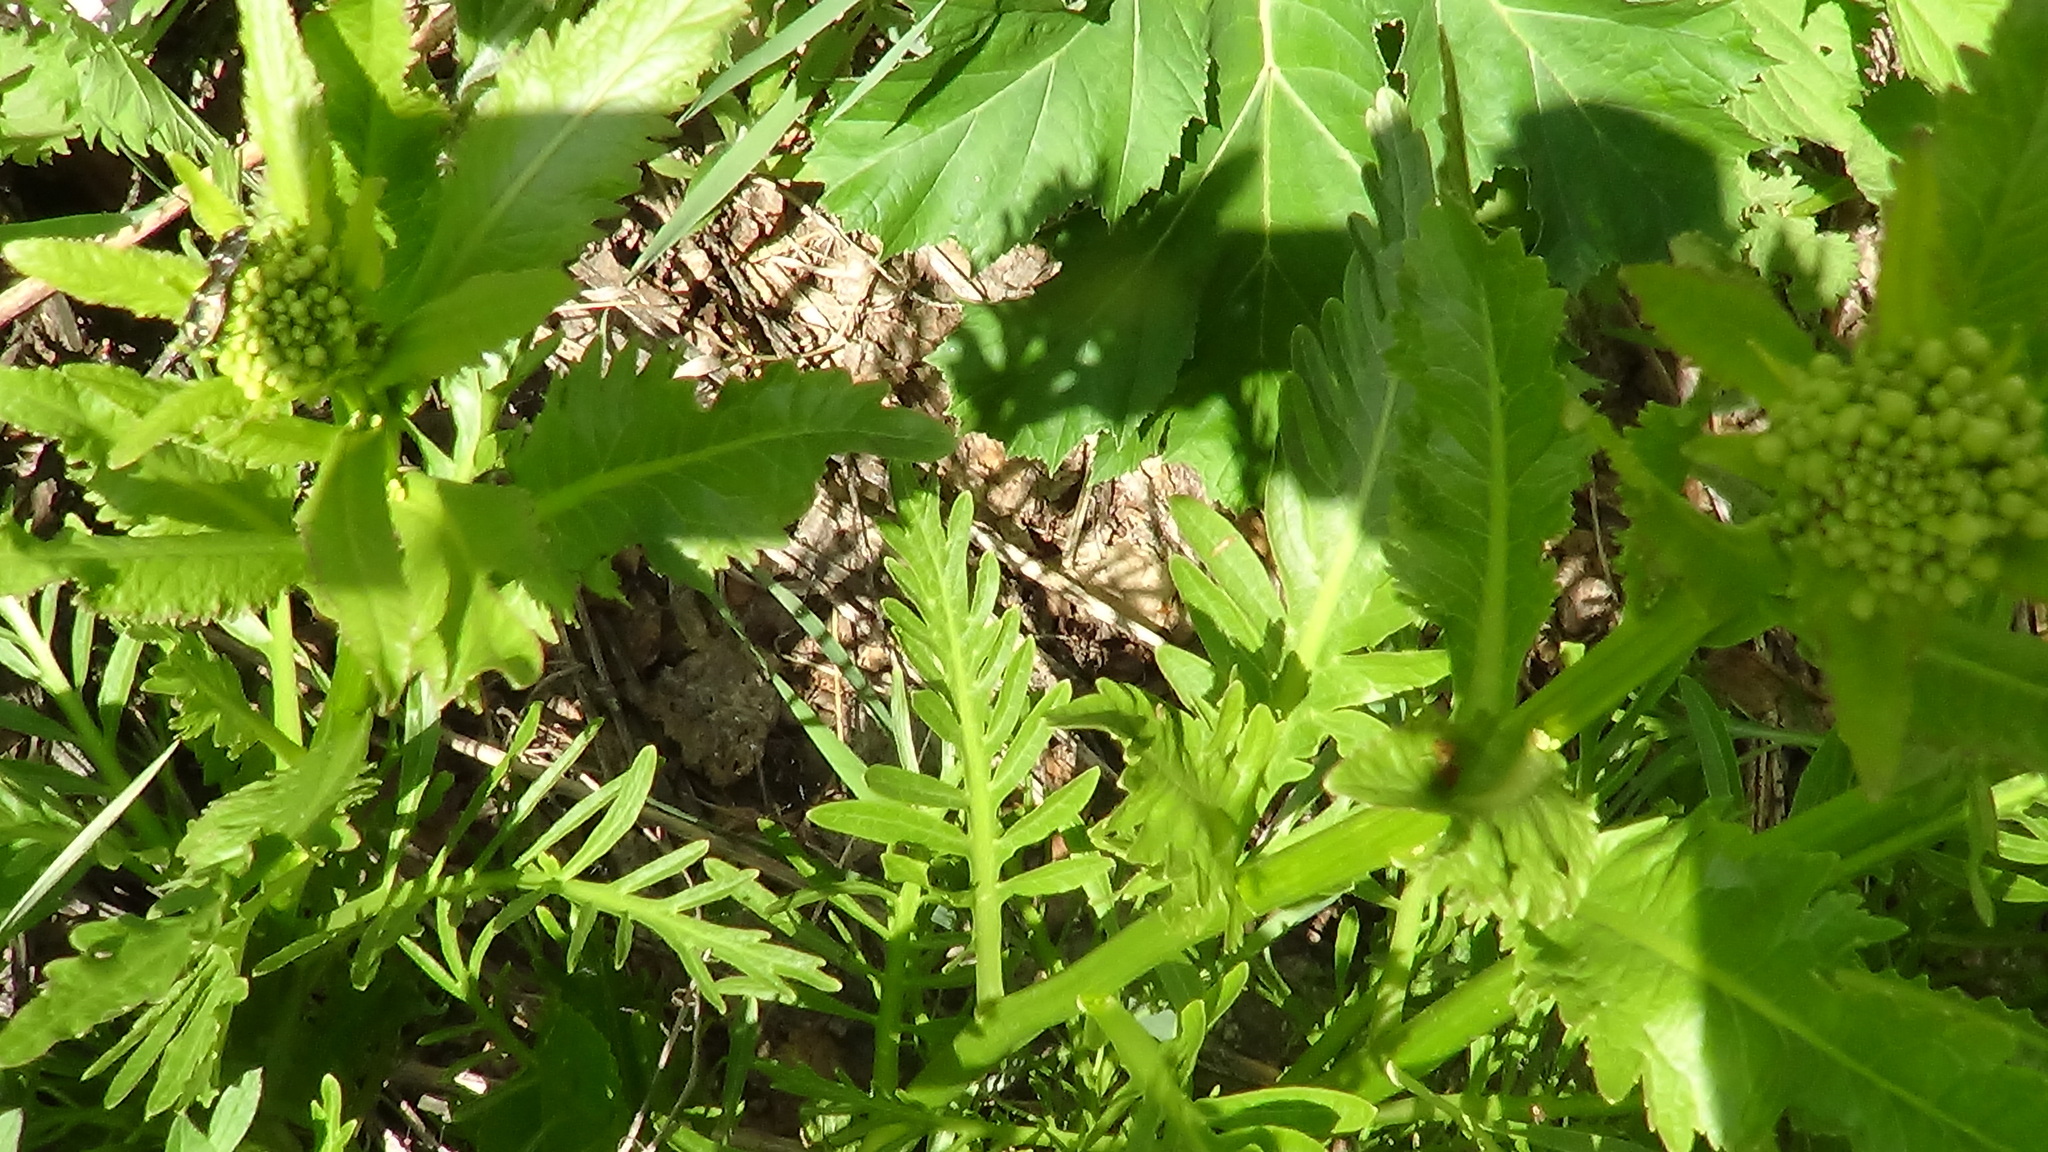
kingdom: Plantae
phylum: Tracheophyta
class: Magnoliopsida
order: Brassicales
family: Brassicaceae
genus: Armoracia
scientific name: Armoracia rusticana
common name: Horseradish
